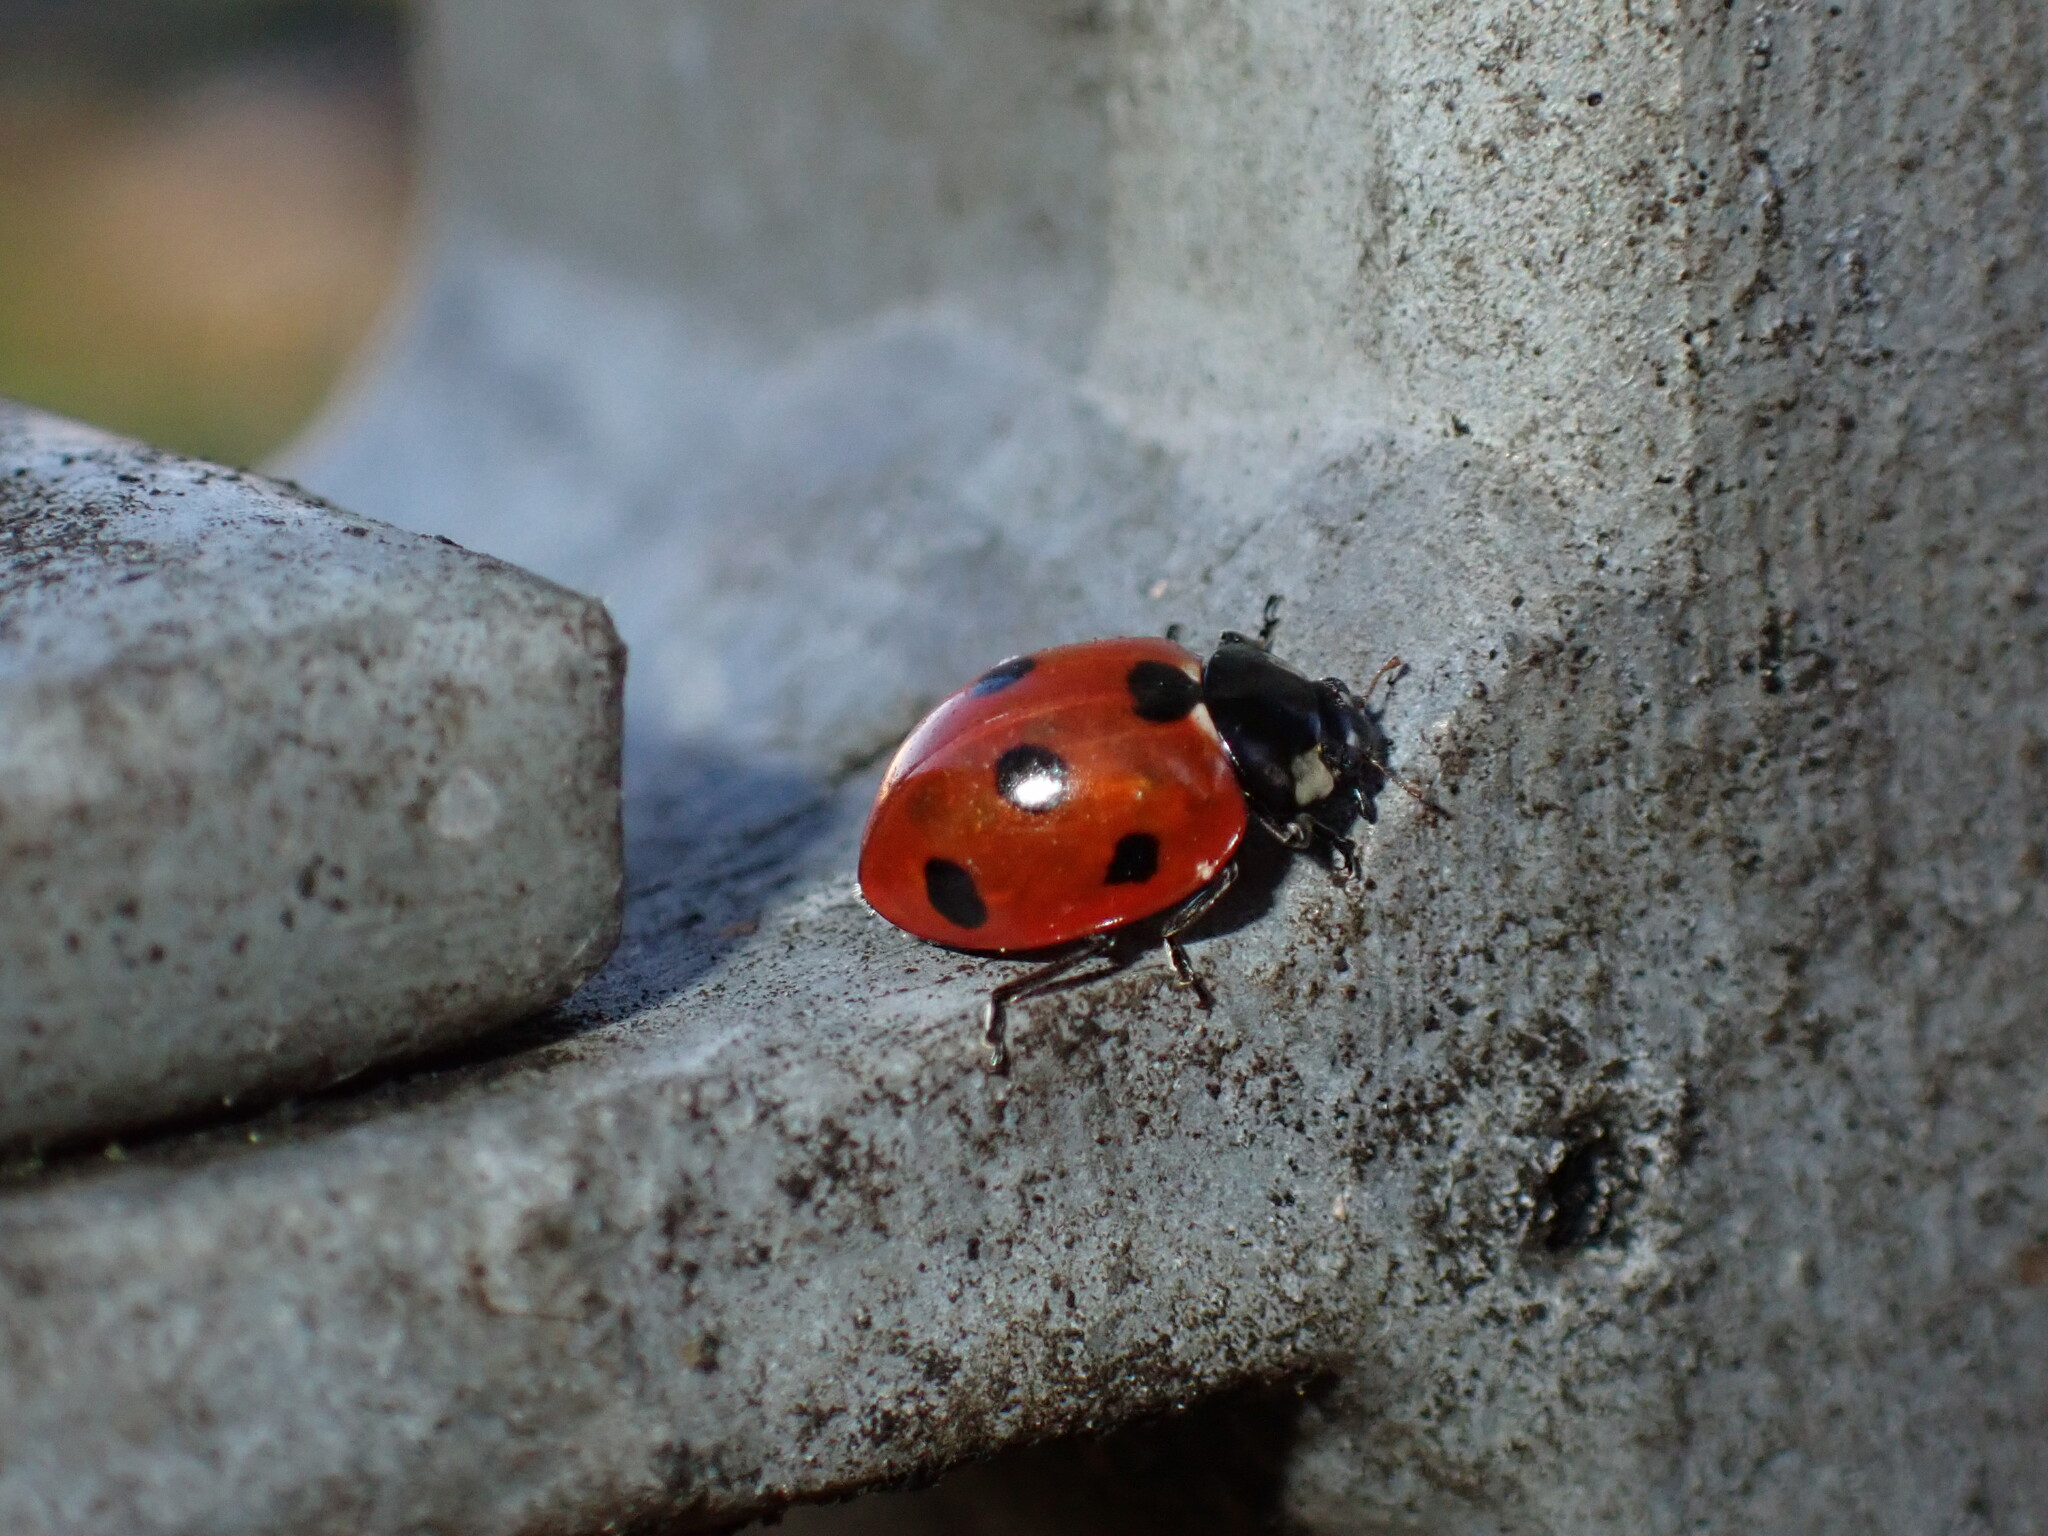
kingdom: Animalia
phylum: Arthropoda
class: Insecta
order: Coleoptera
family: Coccinellidae
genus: Coccinella
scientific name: Coccinella septempunctata
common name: Sevenspotted lady beetle
